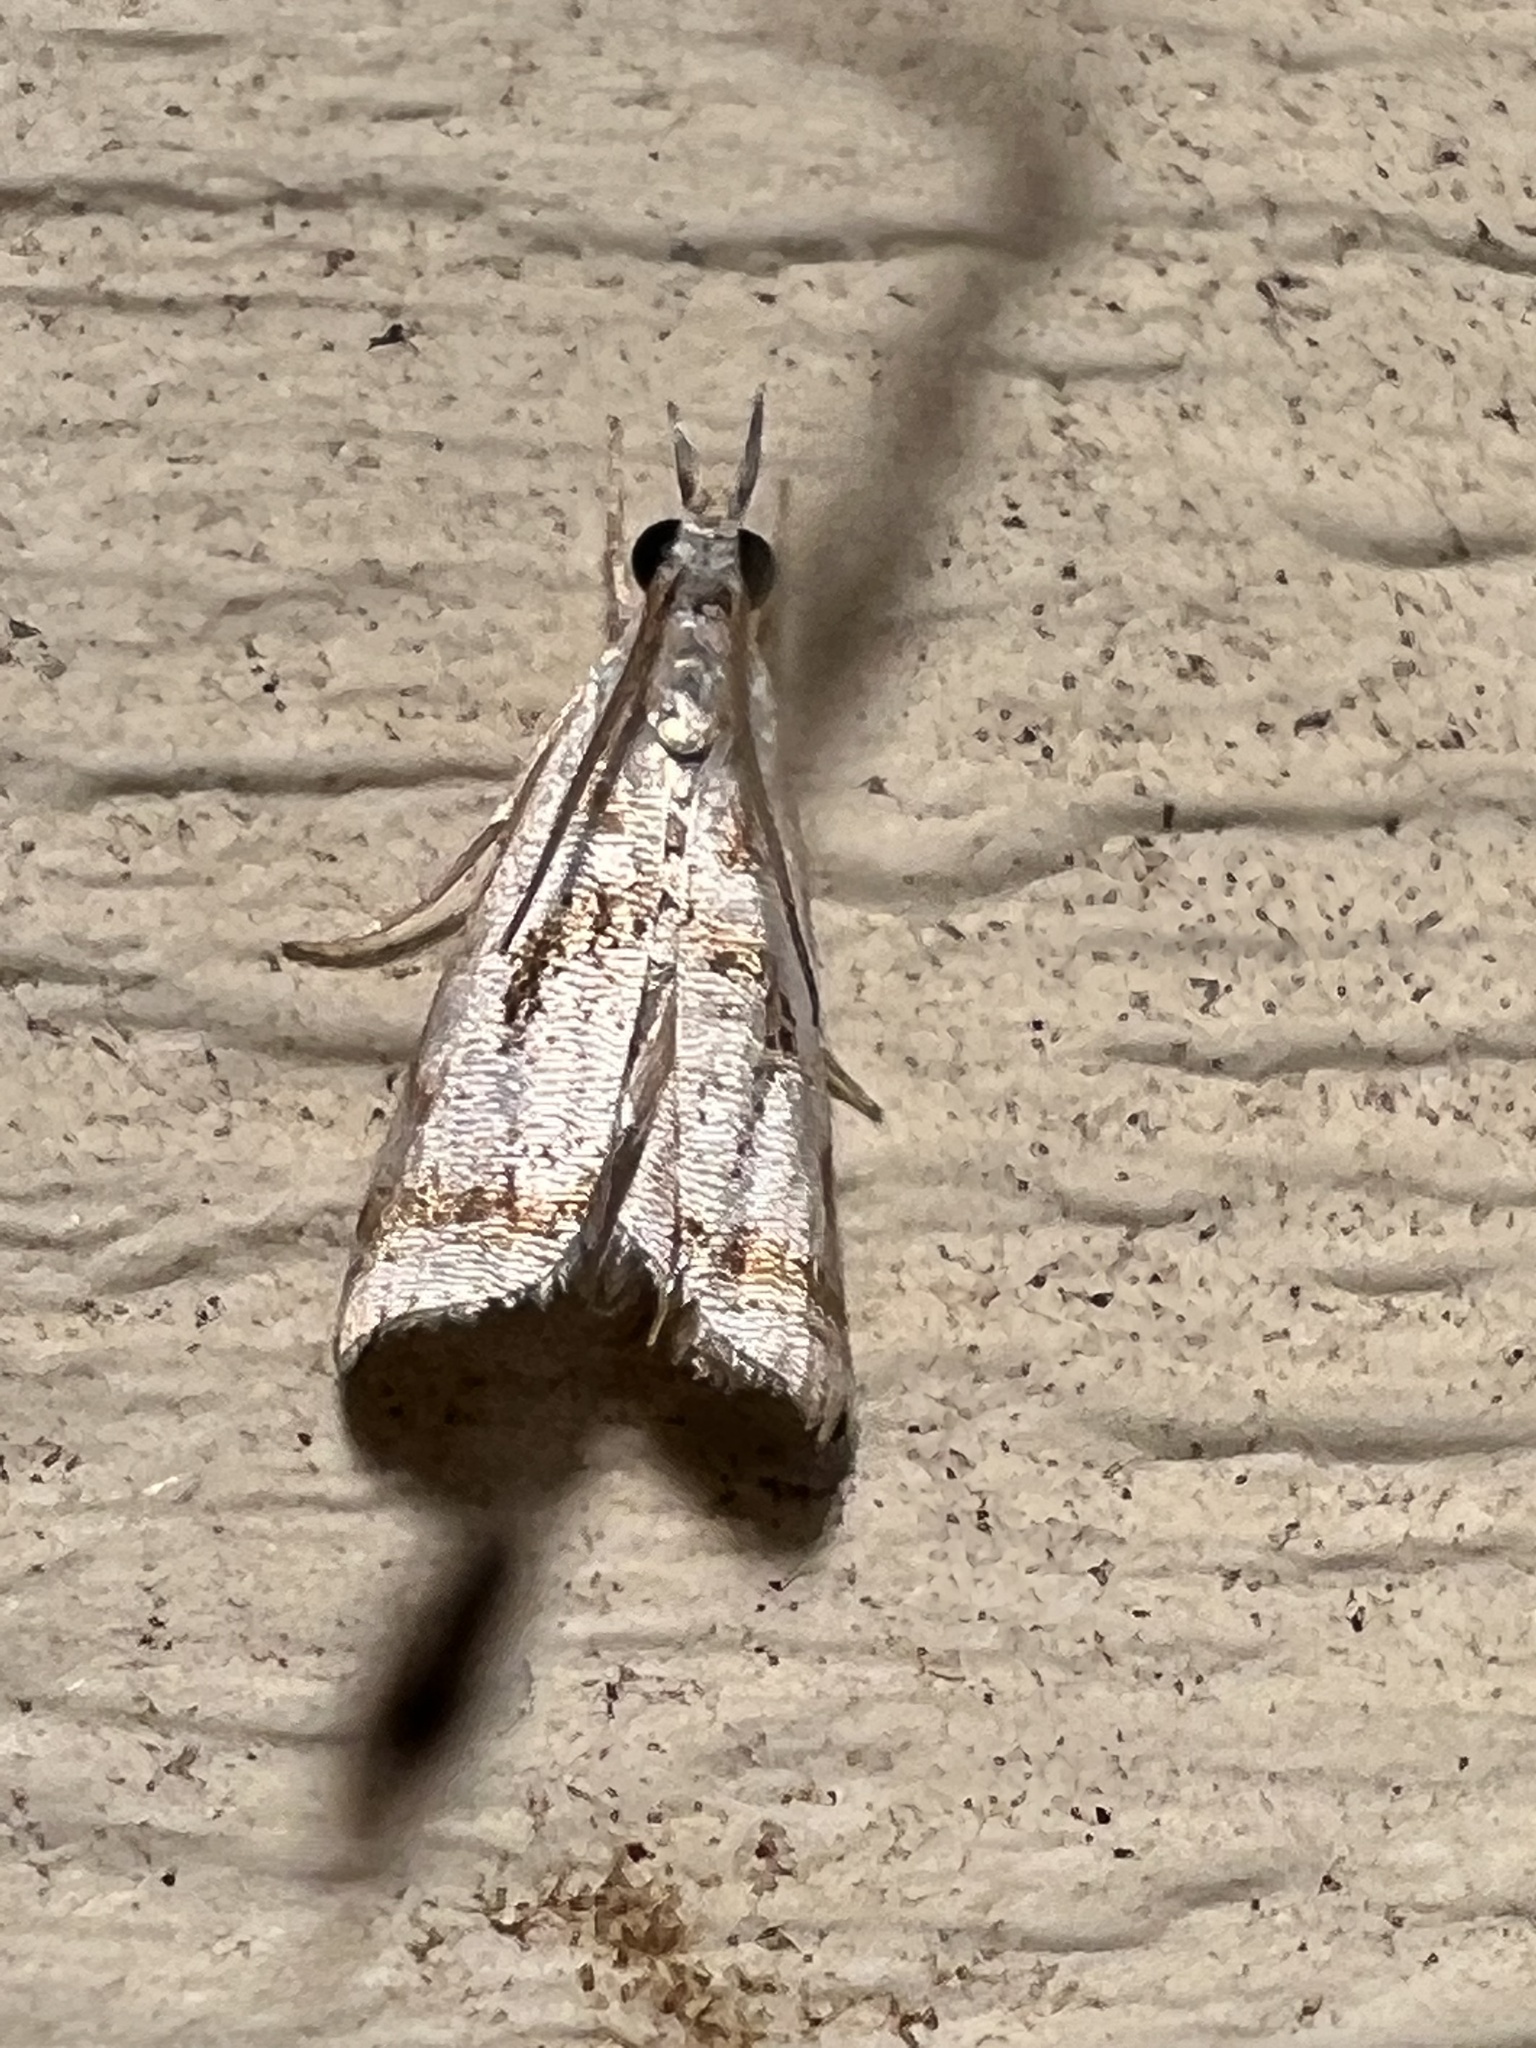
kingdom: Animalia
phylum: Arthropoda
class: Insecta
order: Lepidoptera
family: Crambidae
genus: Microcrambus
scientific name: Microcrambus elegans
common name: Elegant grass-veneer
